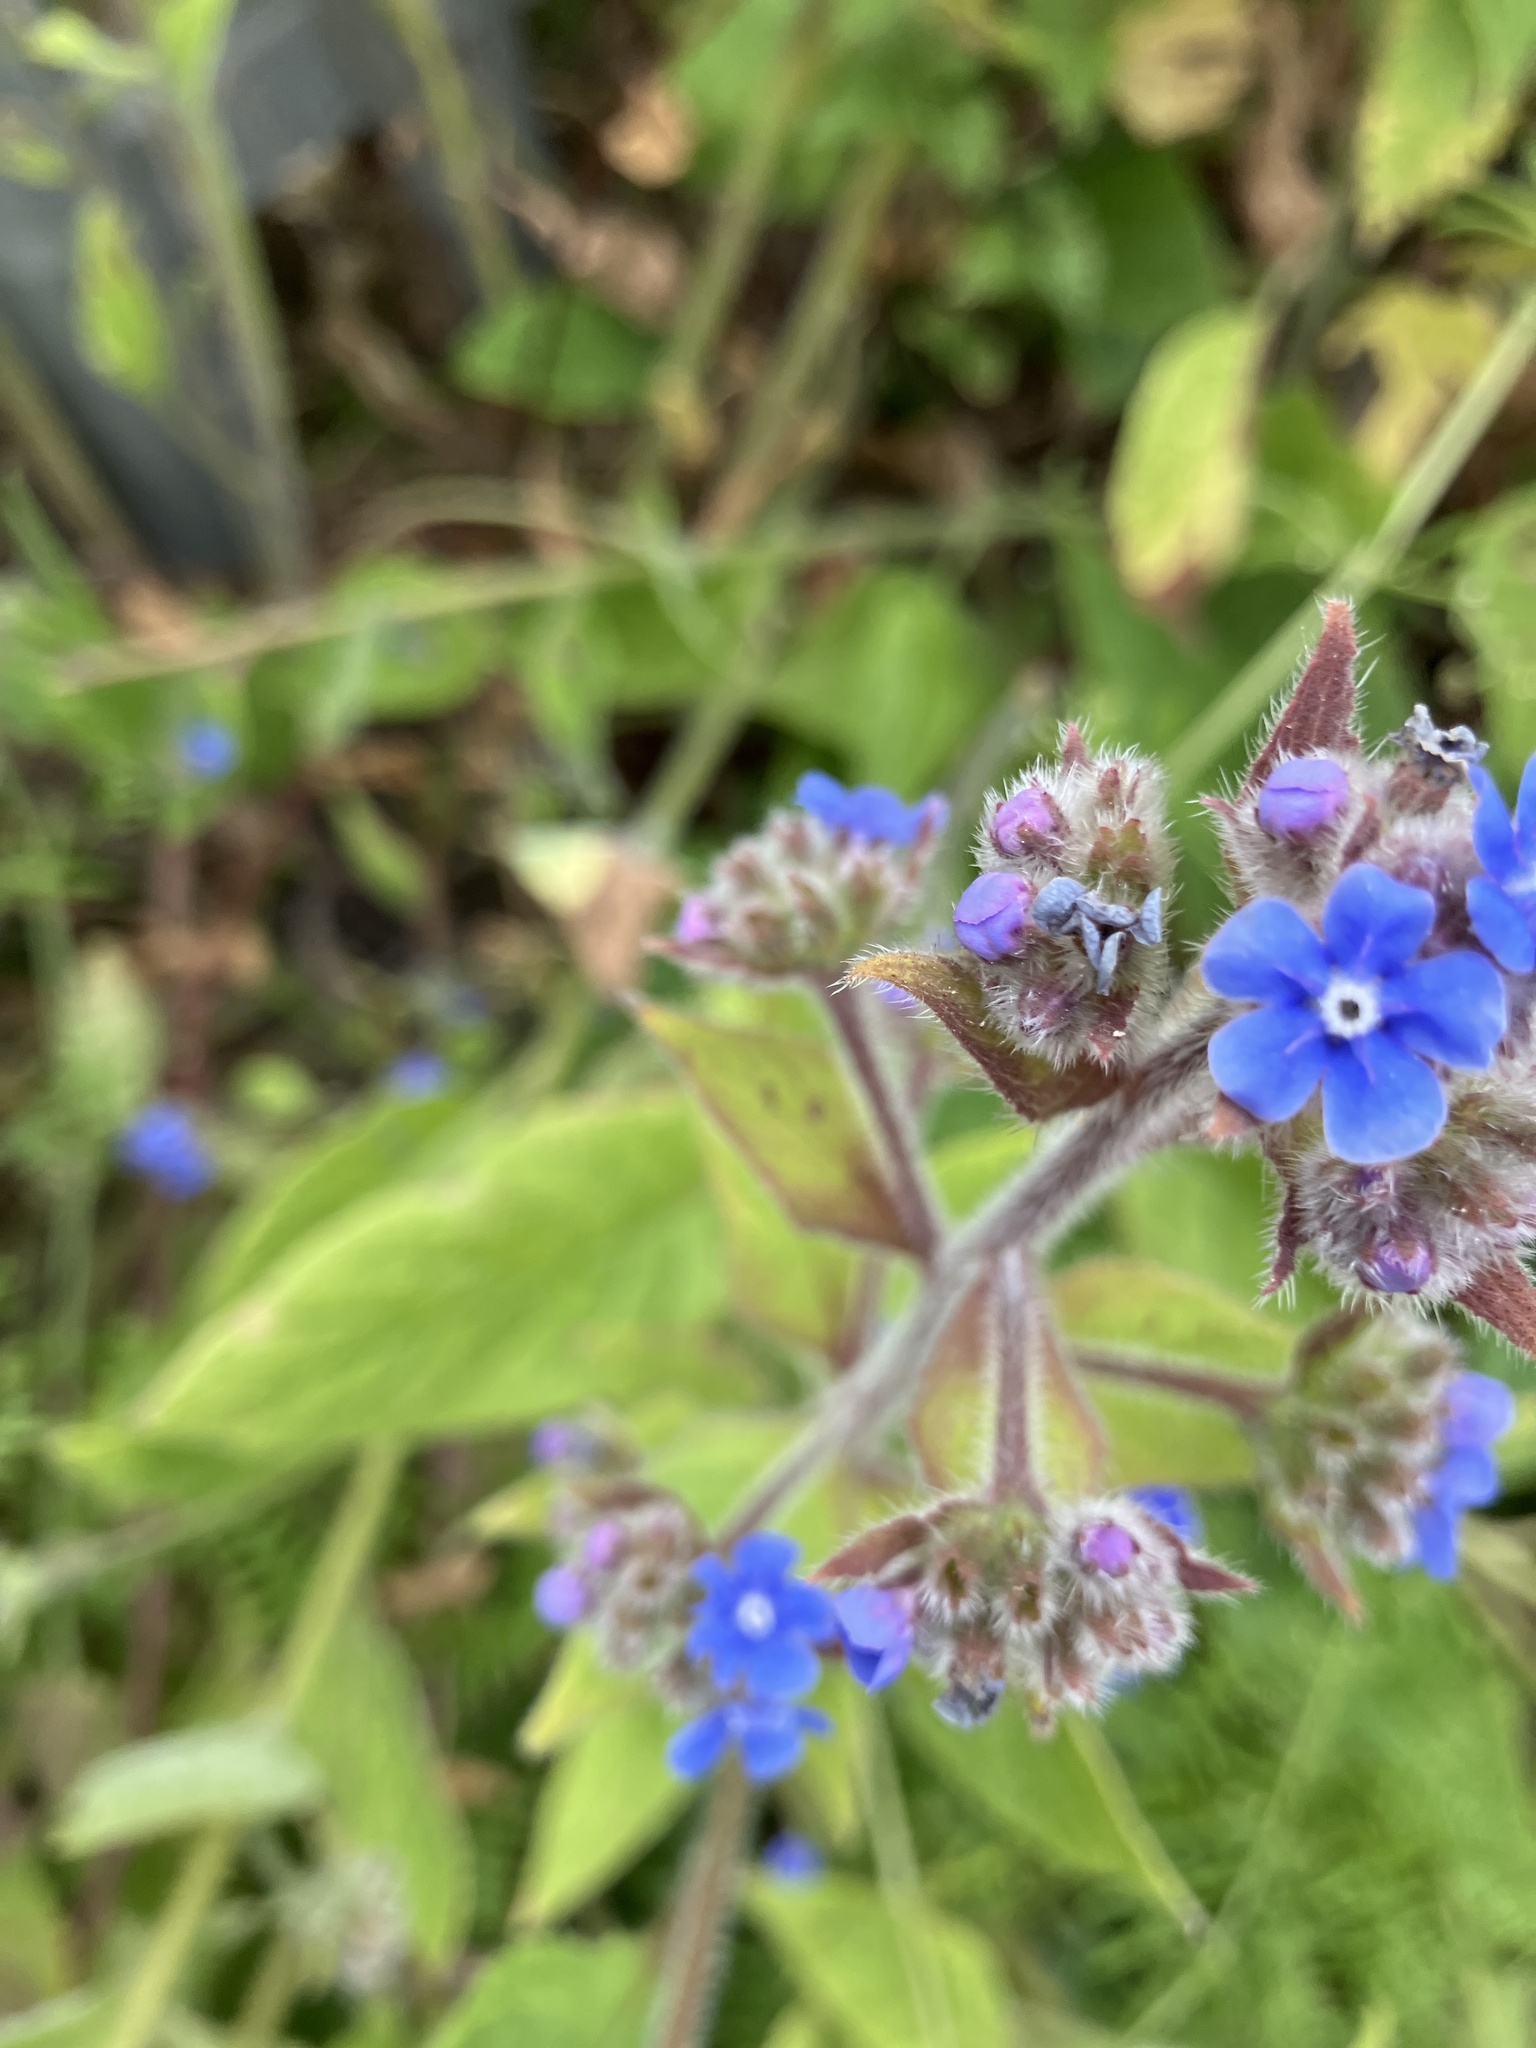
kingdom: Plantae
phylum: Tracheophyta
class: Magnoliopsida
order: Boraginales
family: Boraginaceae
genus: Pentaglottis
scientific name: Pentaglottis sempervirens
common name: Green alkanet
